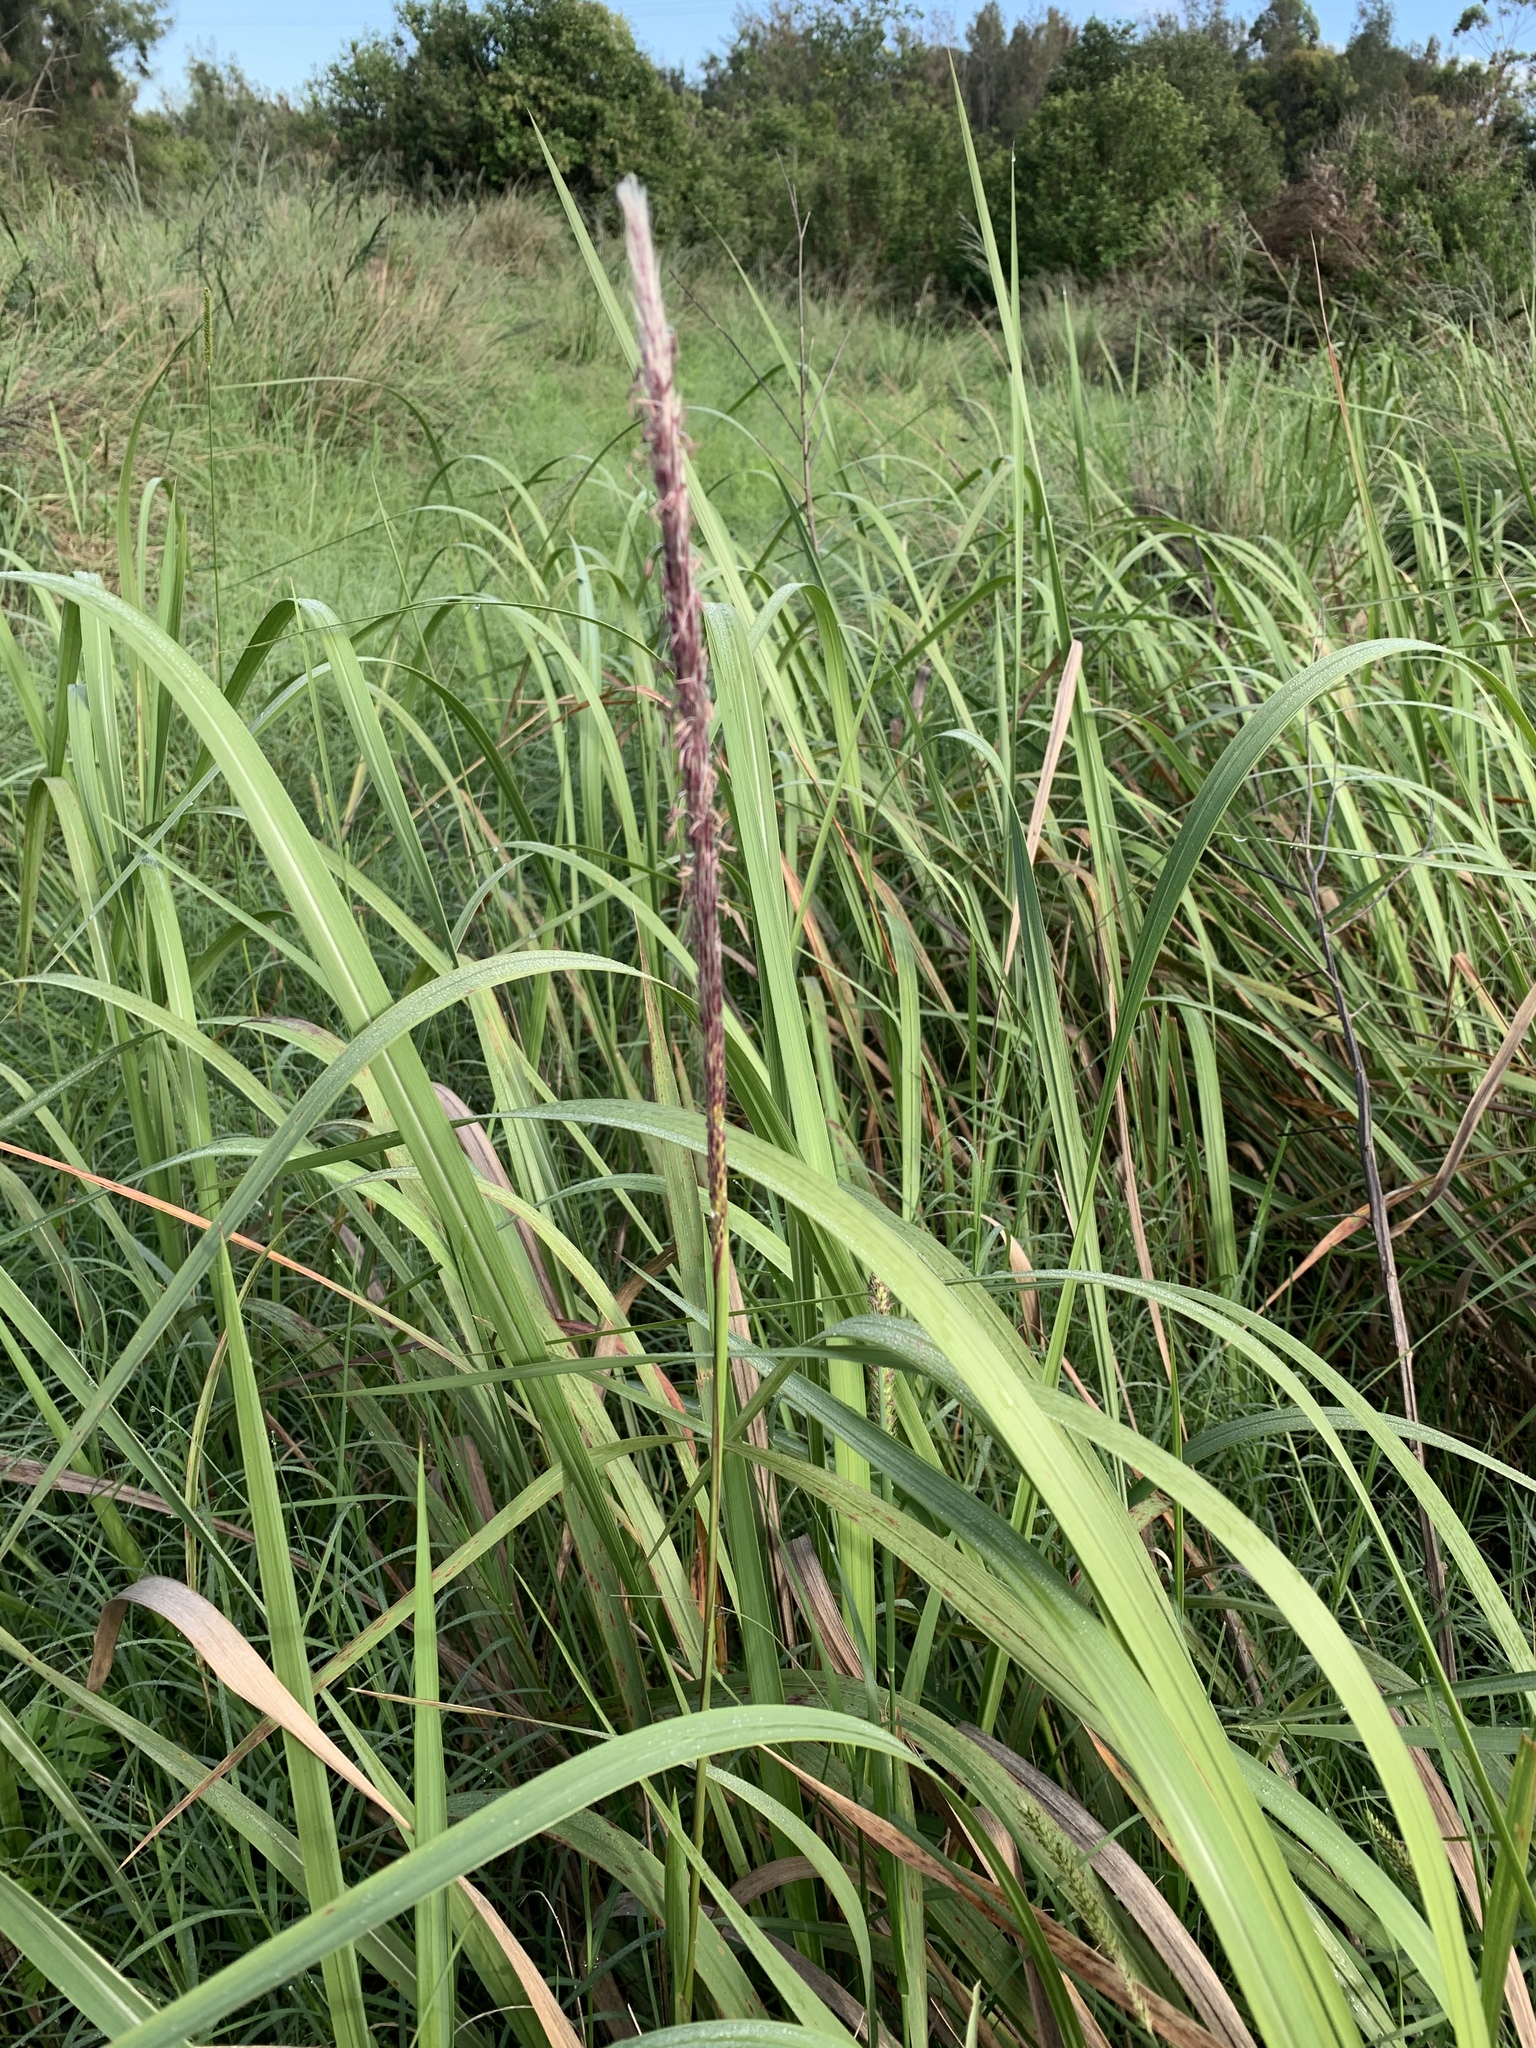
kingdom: Plantae
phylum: Tracheophyta
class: Liliopsida
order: Poales
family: Poaceae
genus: Imperata
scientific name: Imperata cylindrica
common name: Cogongrass
